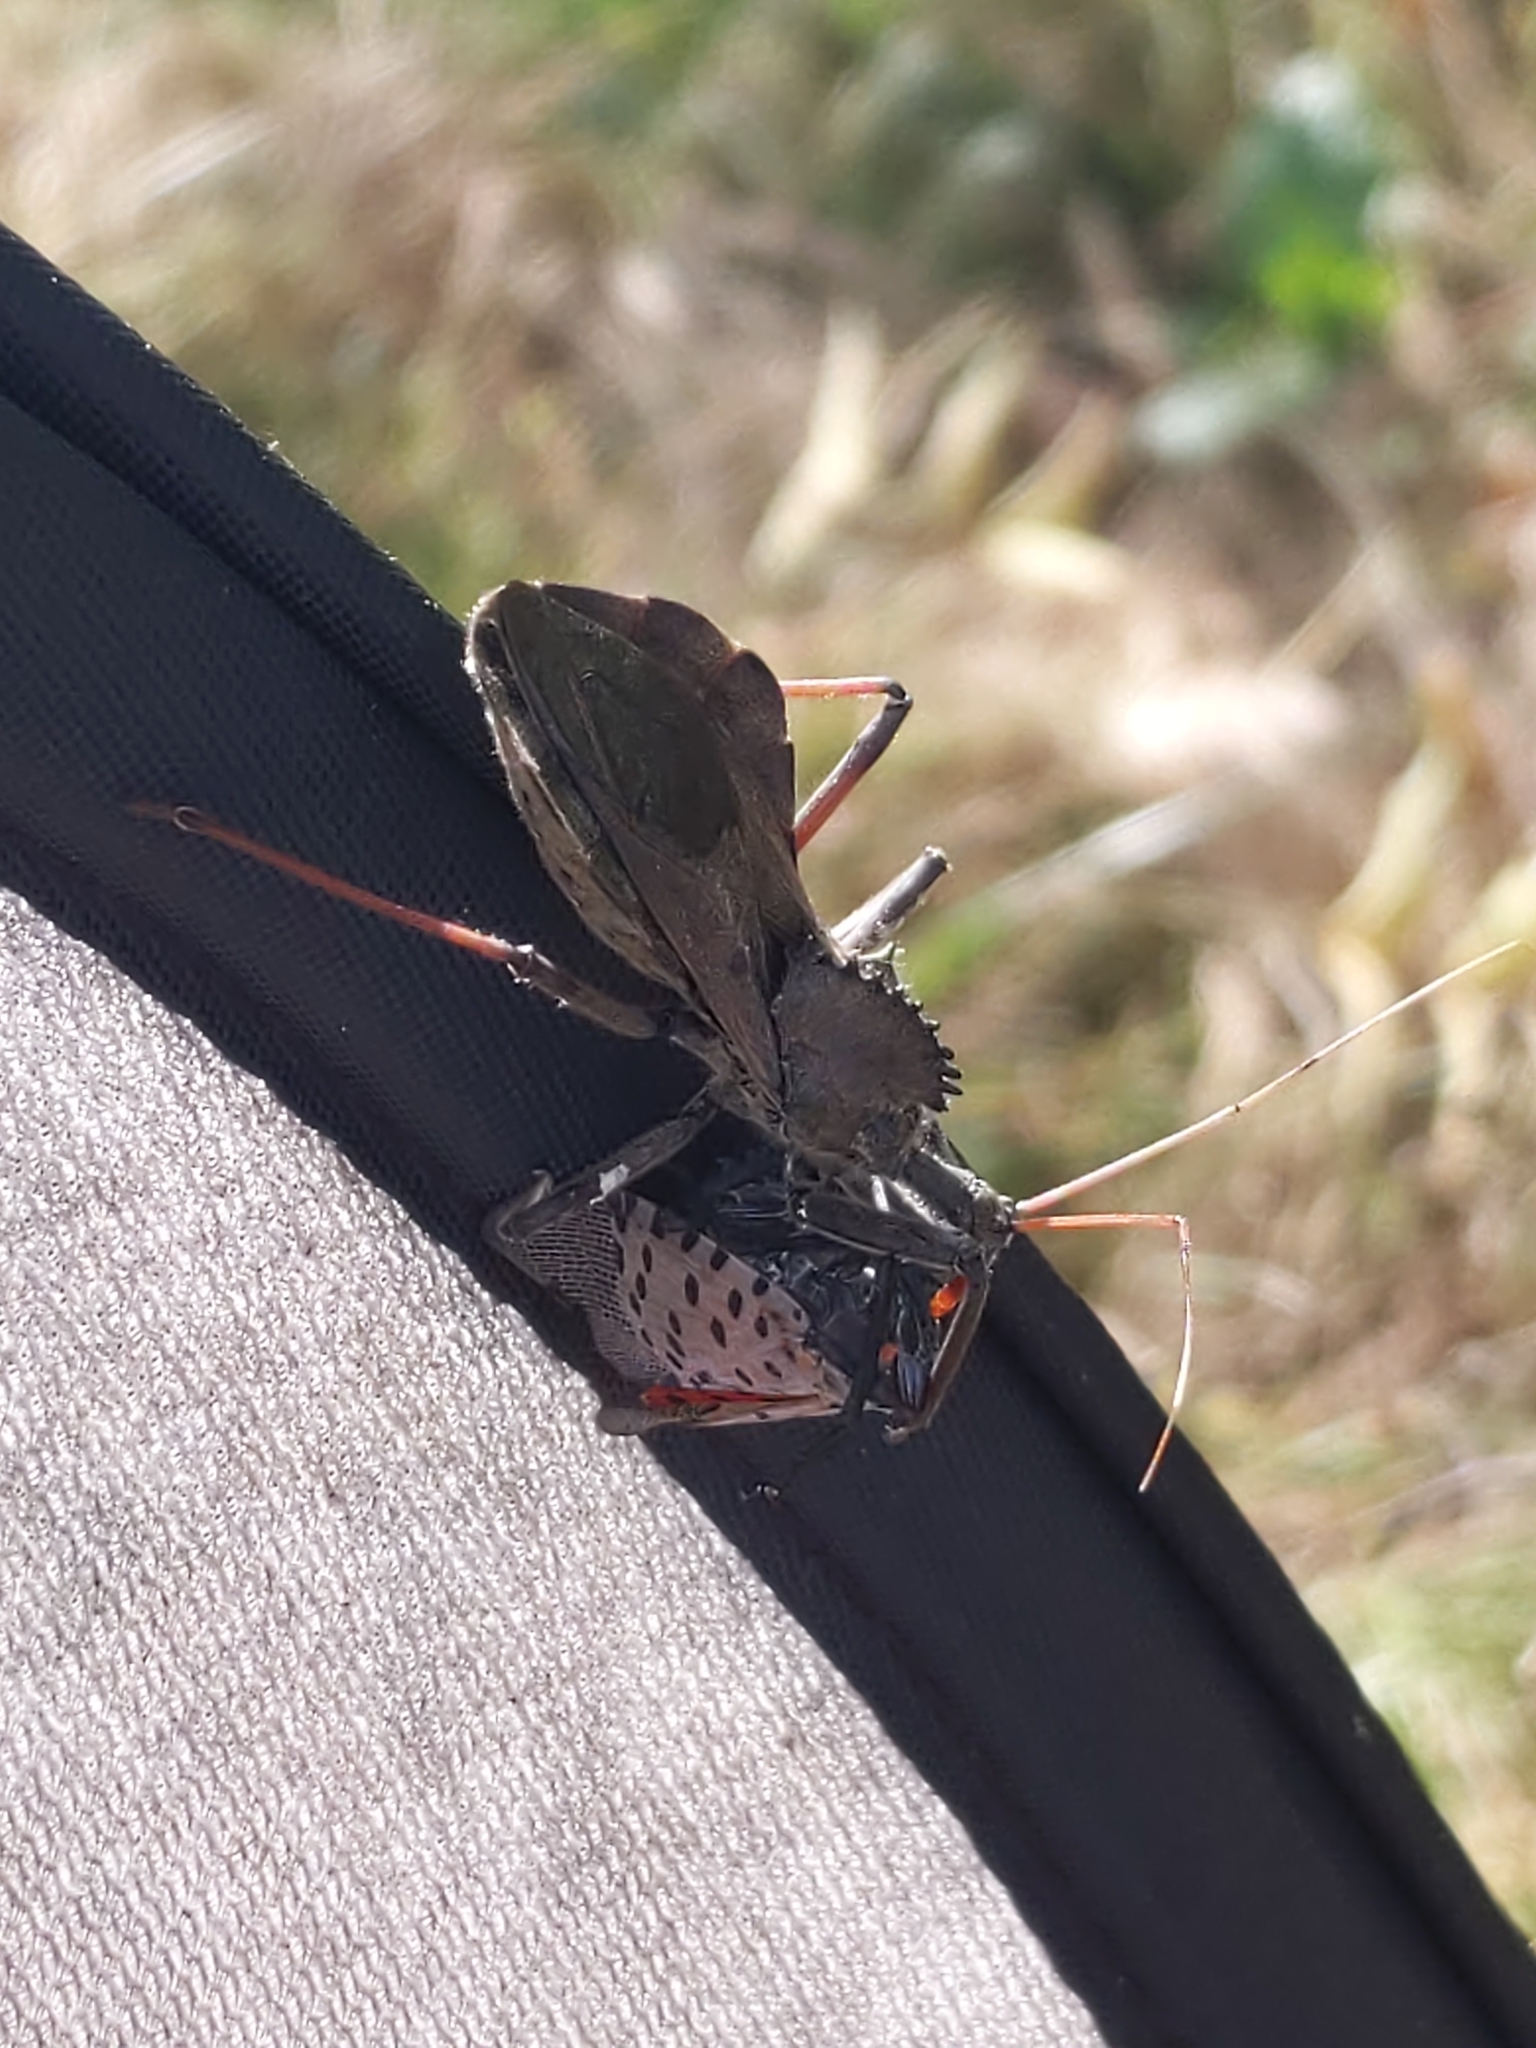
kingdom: Animalia
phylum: Arthropoda
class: Insecta
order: Hemiptera
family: Reduviidae
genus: Arilus
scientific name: Arilus cristatus
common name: North american wheel bug
